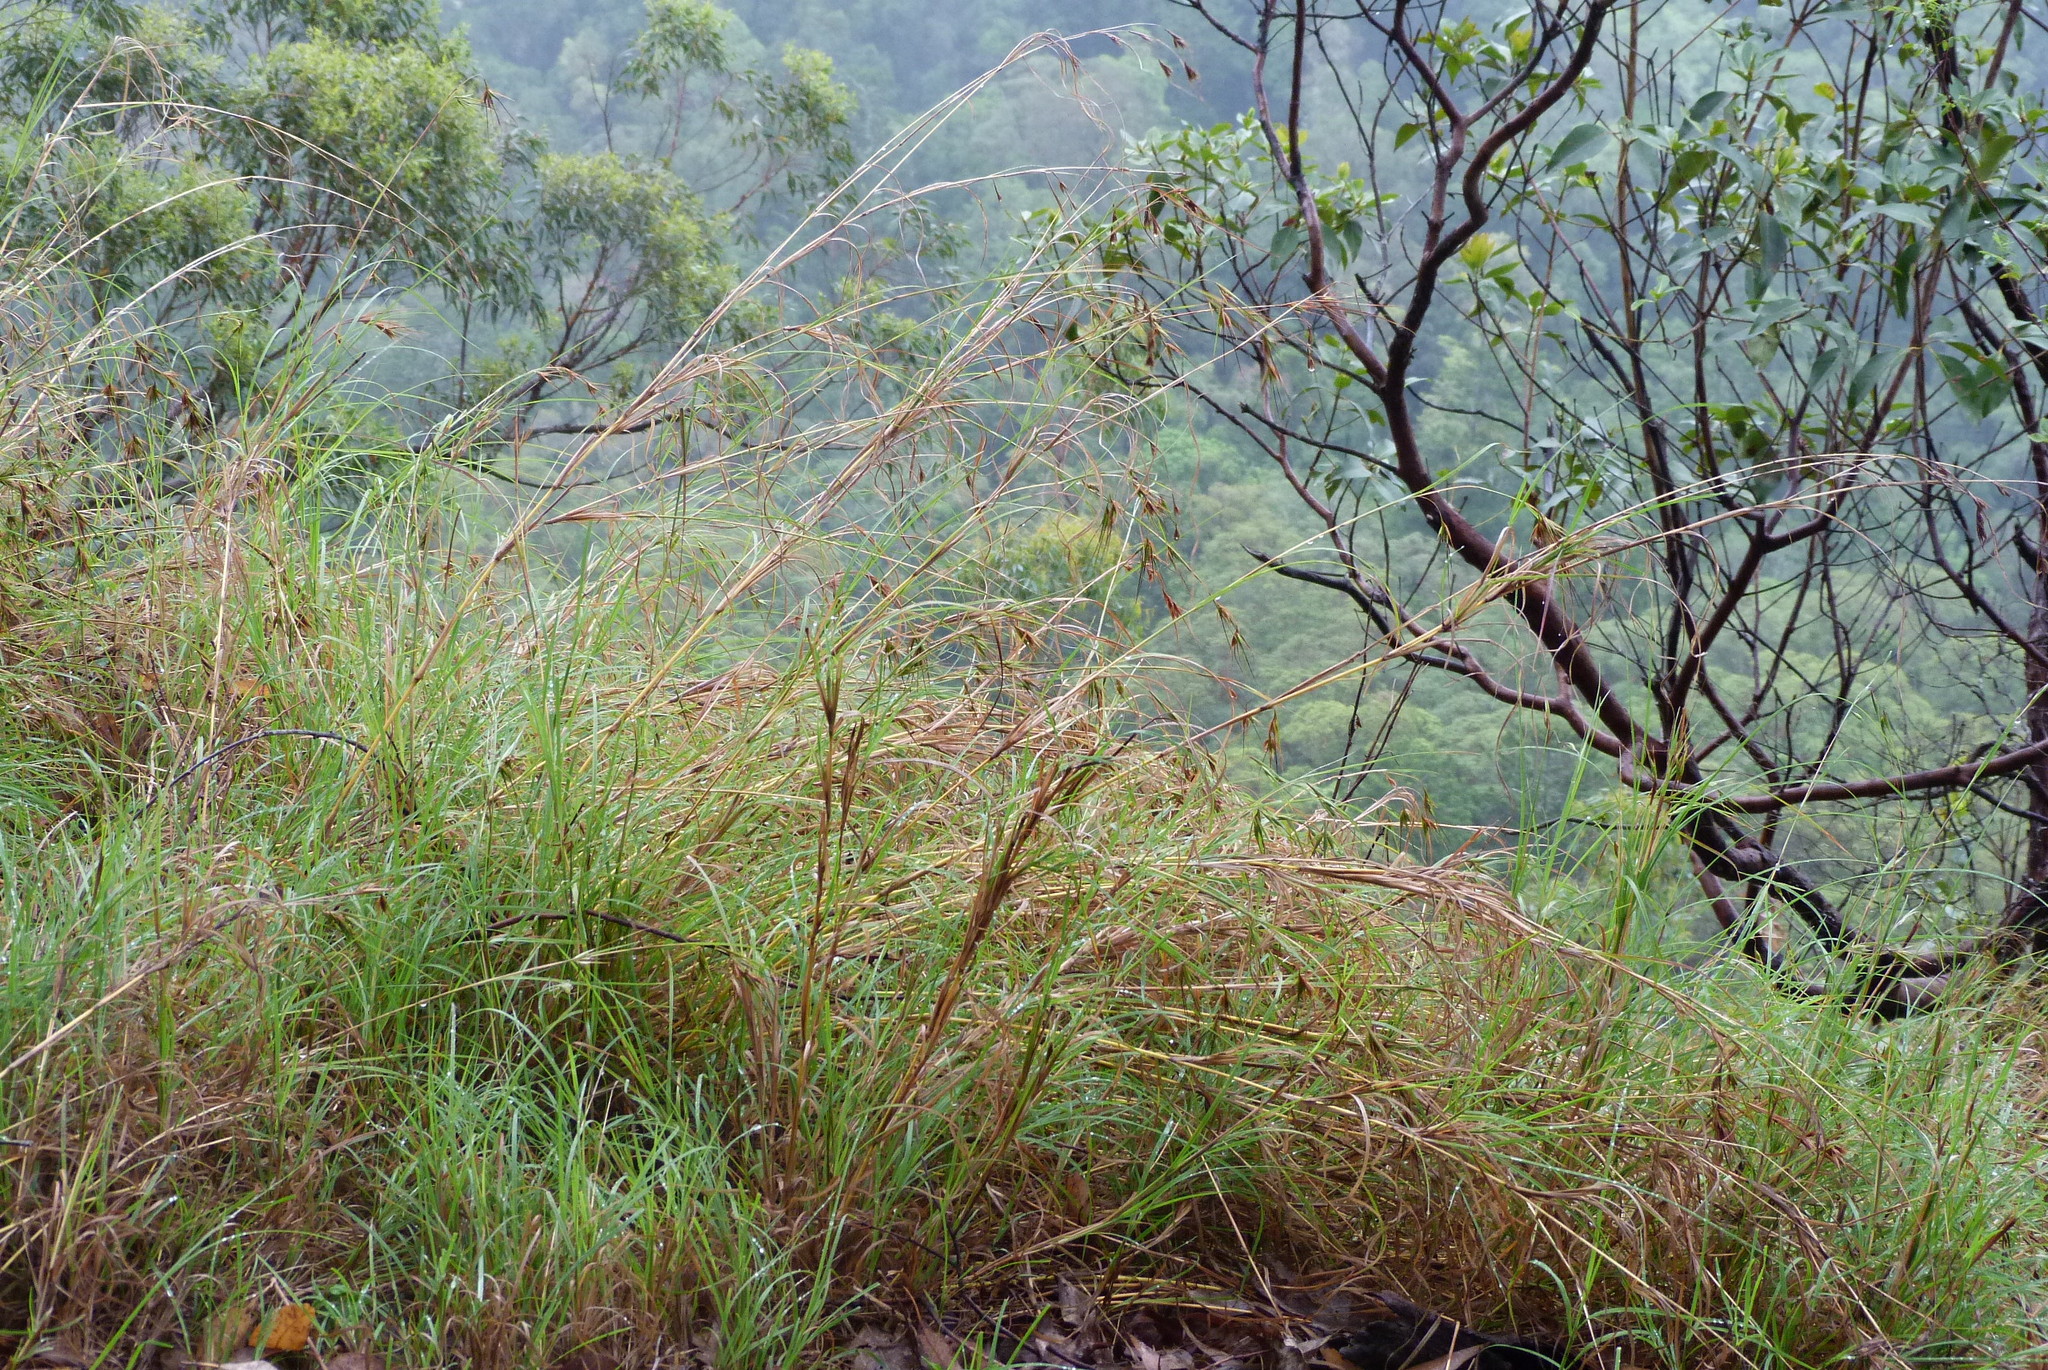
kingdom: Plantae
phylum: Tracheophyta
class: Liliopsida
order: Poales
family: Poaceae
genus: Themeda
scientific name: Themeda triandra
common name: Kangaroo grass
